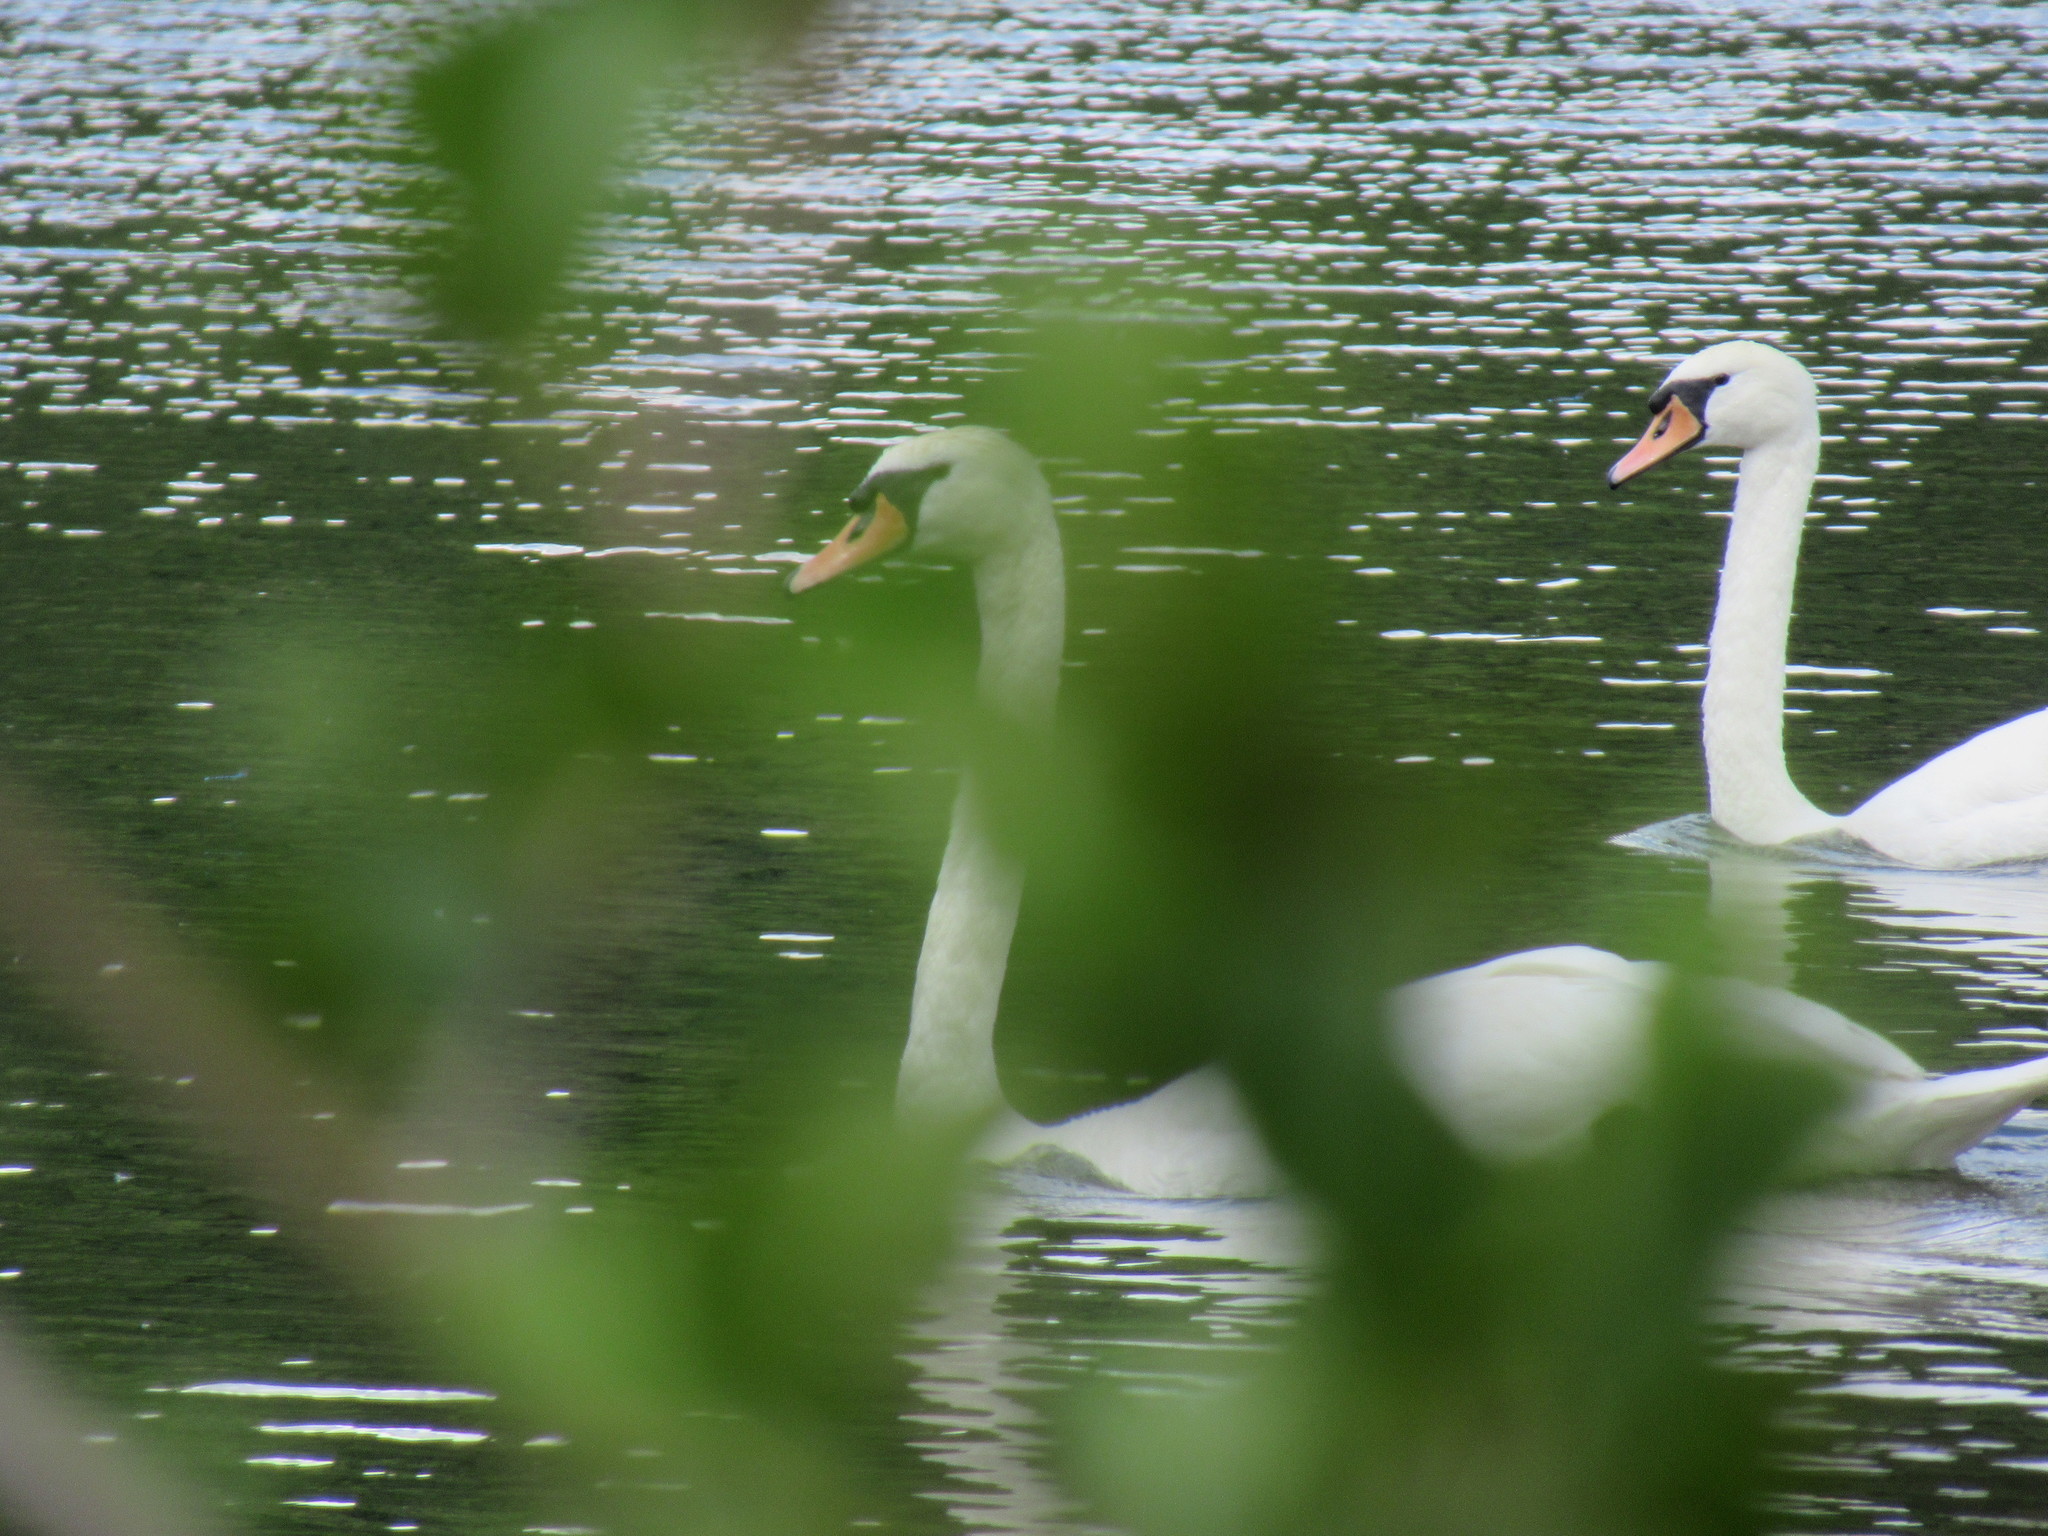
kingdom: Animalia
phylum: Chordata
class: Aves
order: Anseriformes
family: Anatidae
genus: Cygnus
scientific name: Cygnus olor
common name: Mute swan
